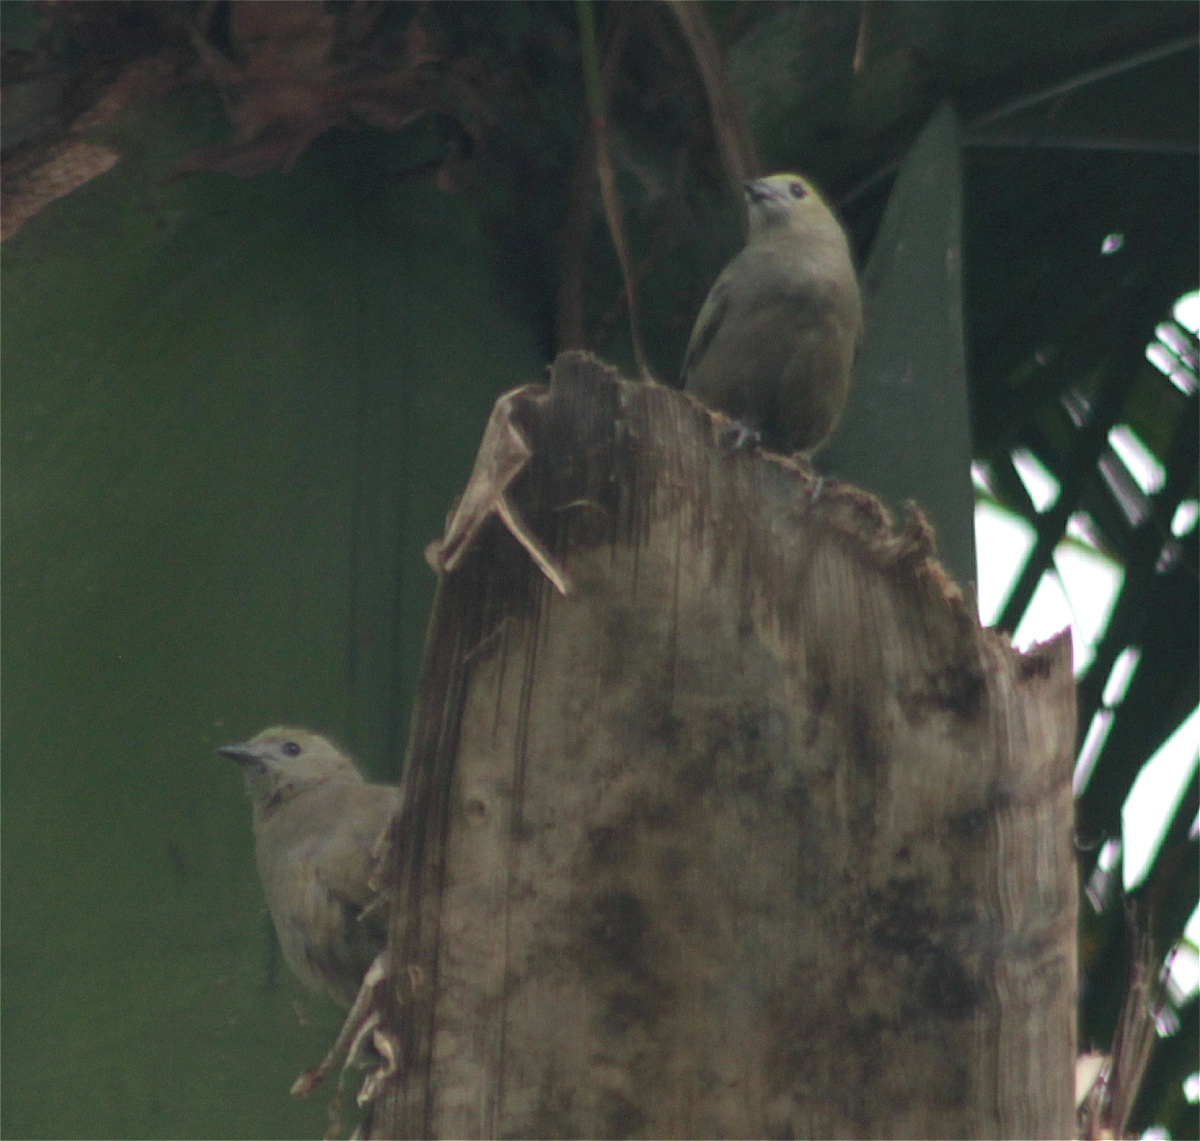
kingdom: Animalia
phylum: Chordata
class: Aves
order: Passeriformes
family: Thraupidae
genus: Thraupis
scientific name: Thraupis palmarum
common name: Palm tanager
